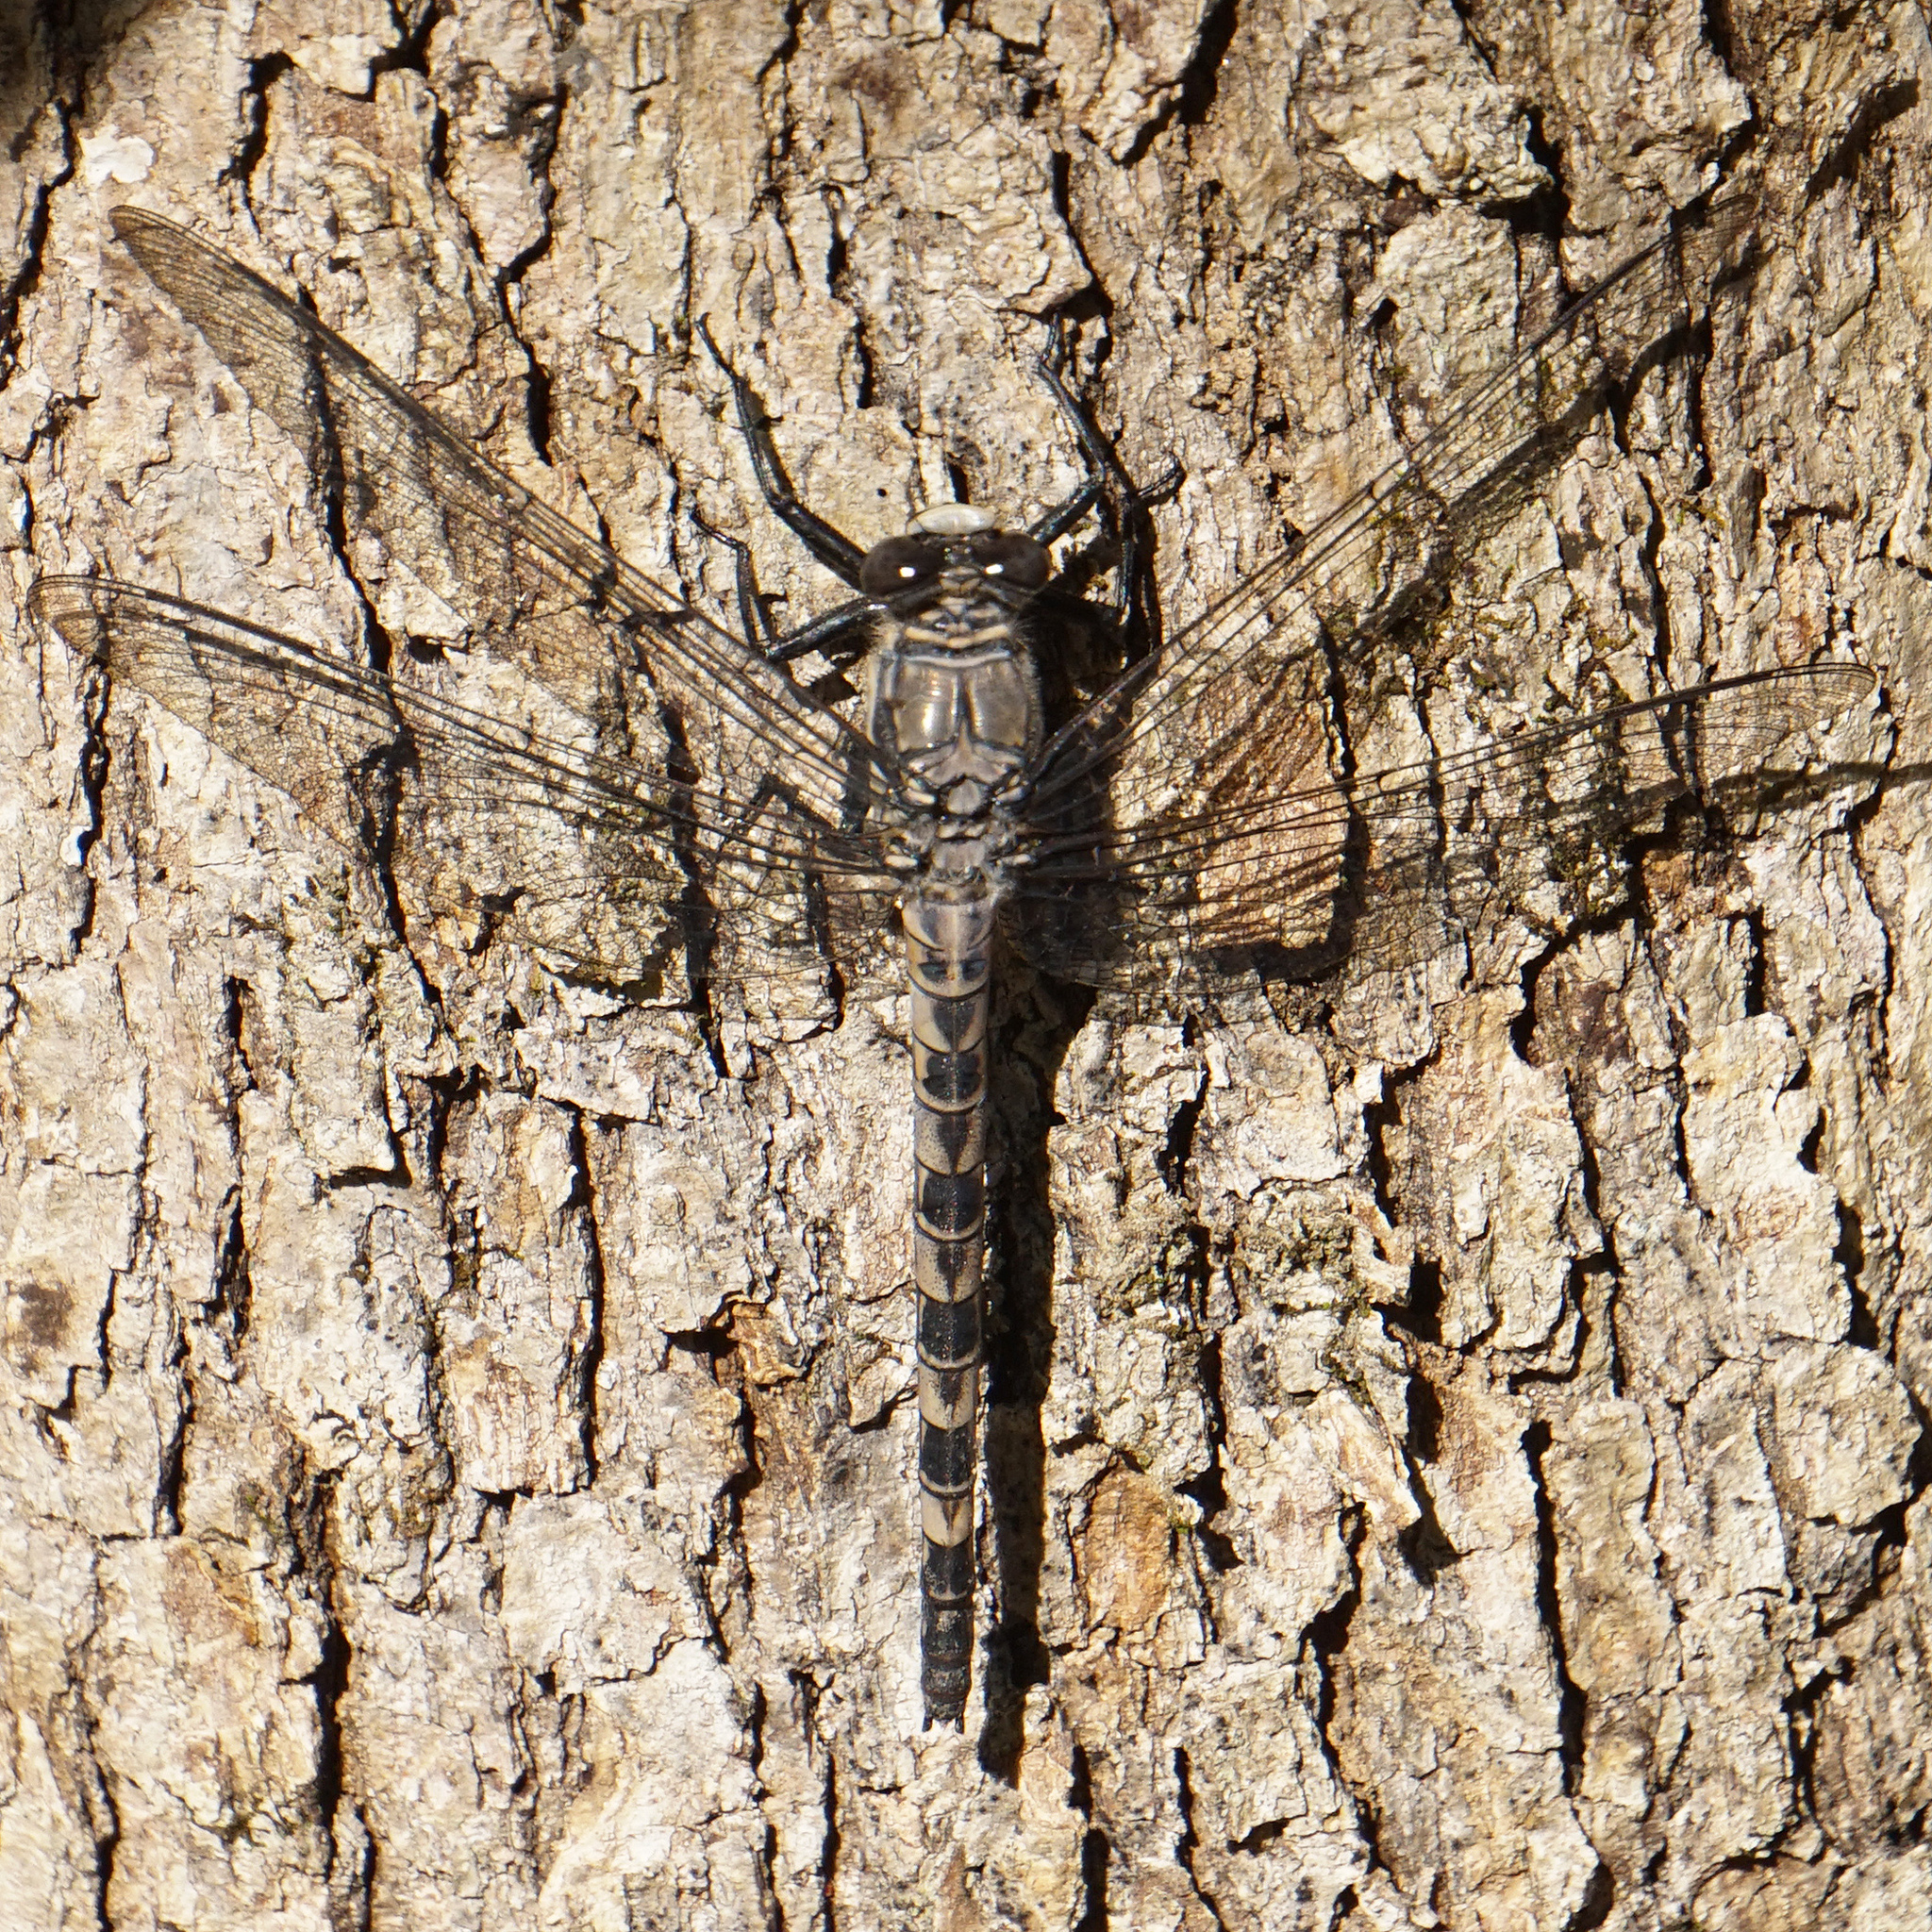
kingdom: Animalia
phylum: Arthropoda
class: Insecta
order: Odonata
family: Petaluridae
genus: Tachopteryx
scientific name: Tachopteryx thoreyi
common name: Gray petaltail
